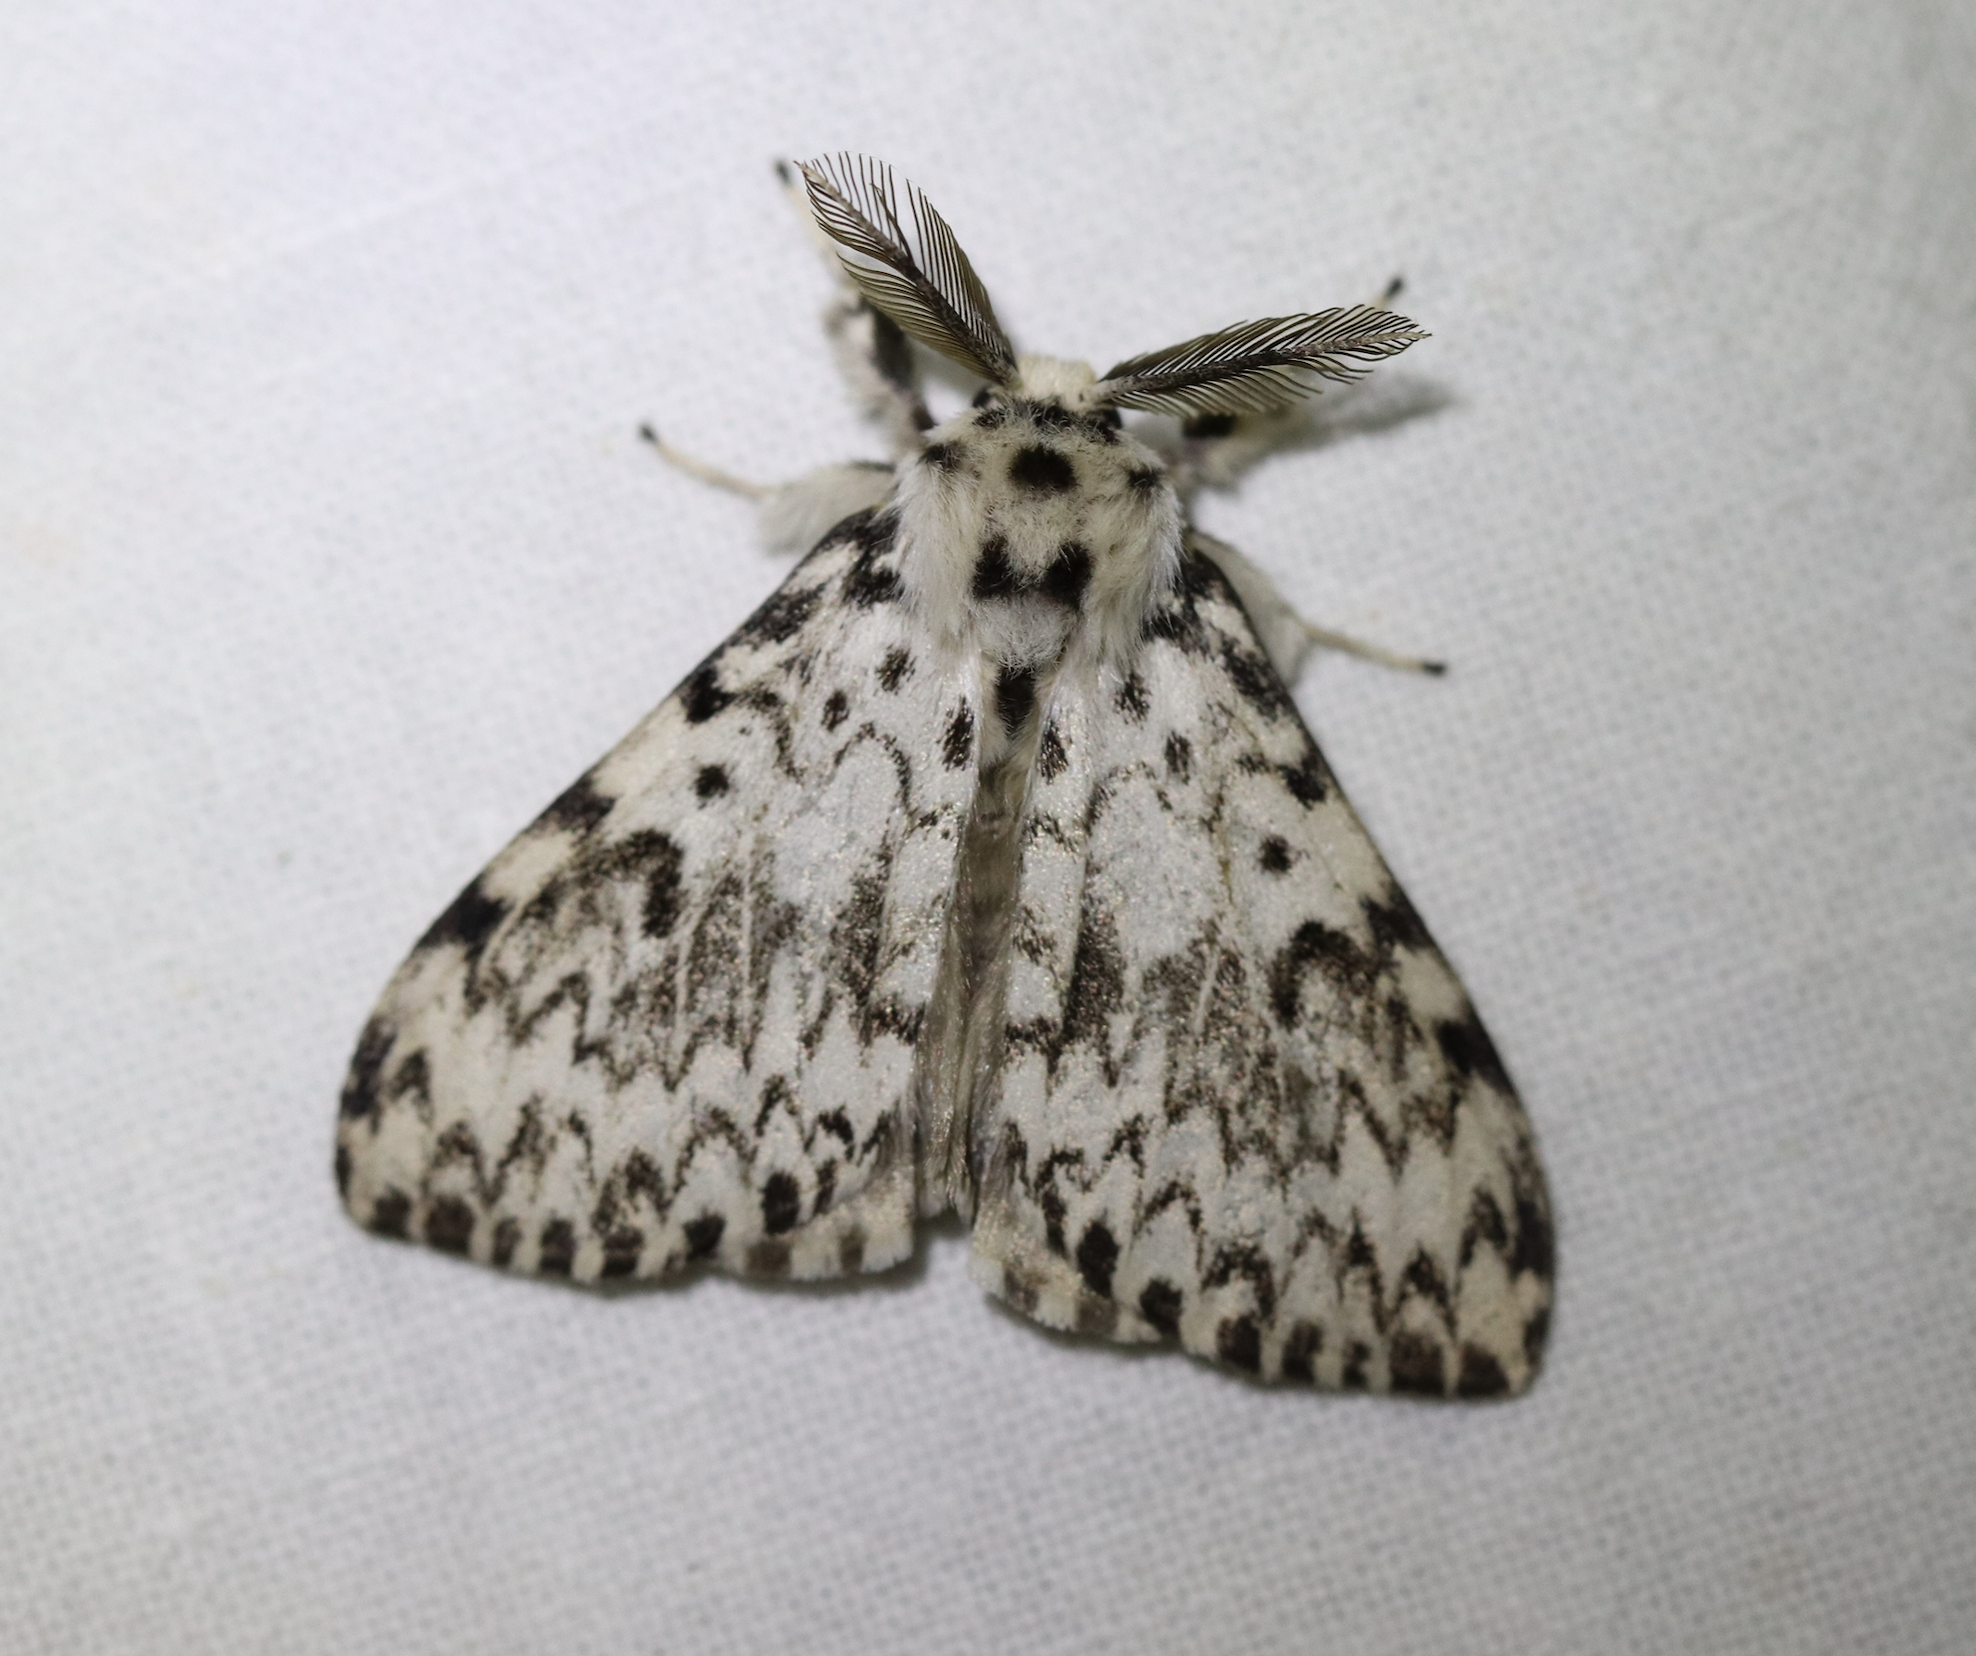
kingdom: Animalia
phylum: Arthropoda
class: Insecta
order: Lepidoptera
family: Erebidae
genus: Lymantria
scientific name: Lymantria monacha
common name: Black arches
